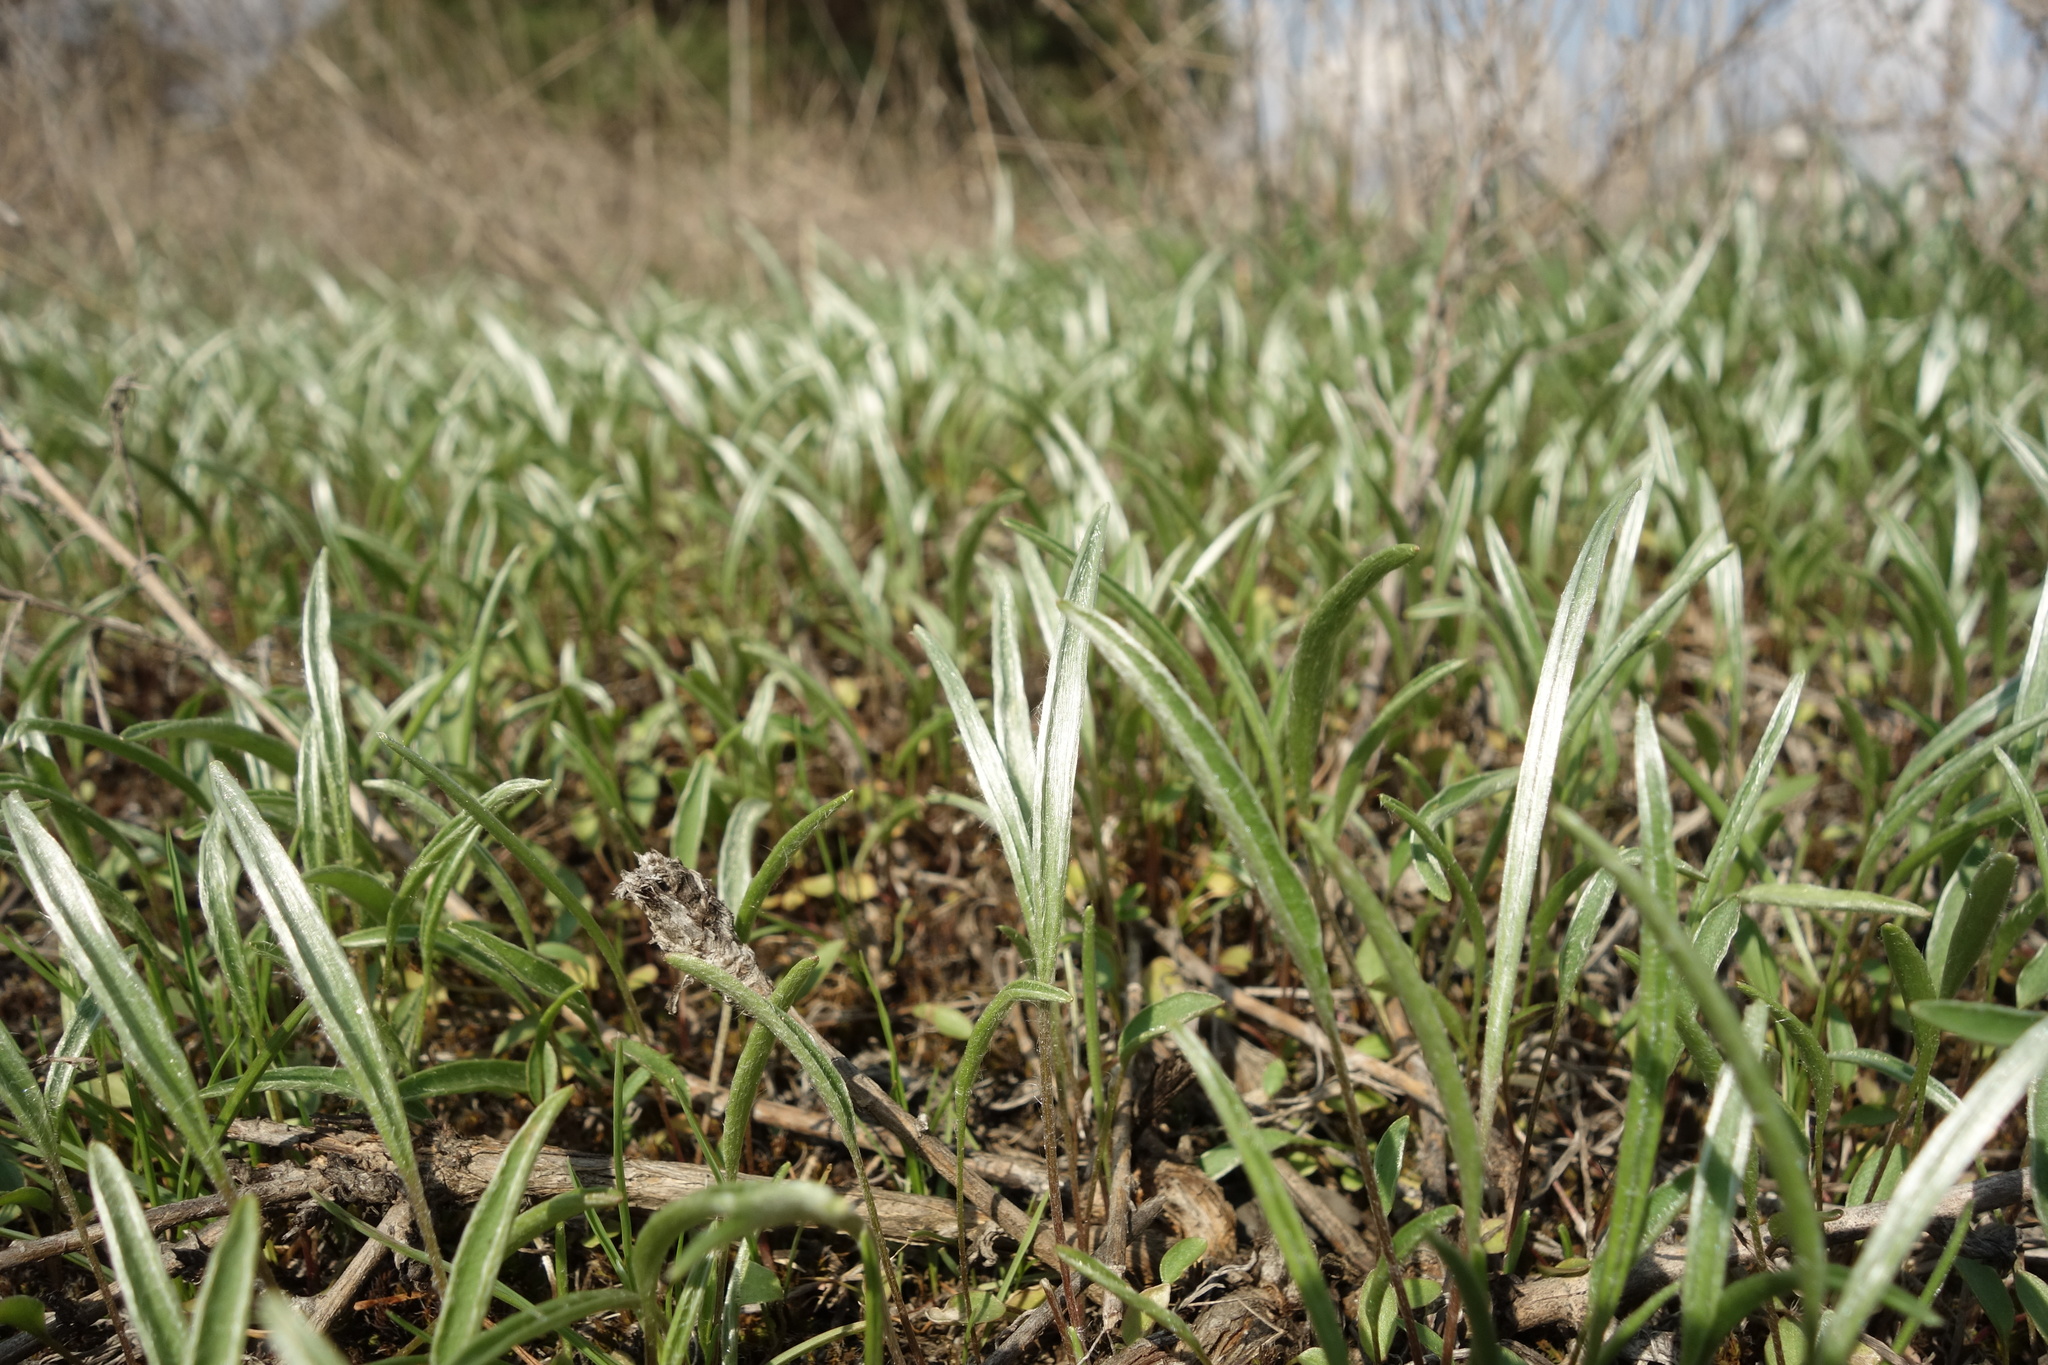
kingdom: Plantae
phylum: Tracheophyta
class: Magnoliopsida
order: Ranunculales
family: Ranunculaceae
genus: Ranunculus
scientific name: Ranunculus illyricus
